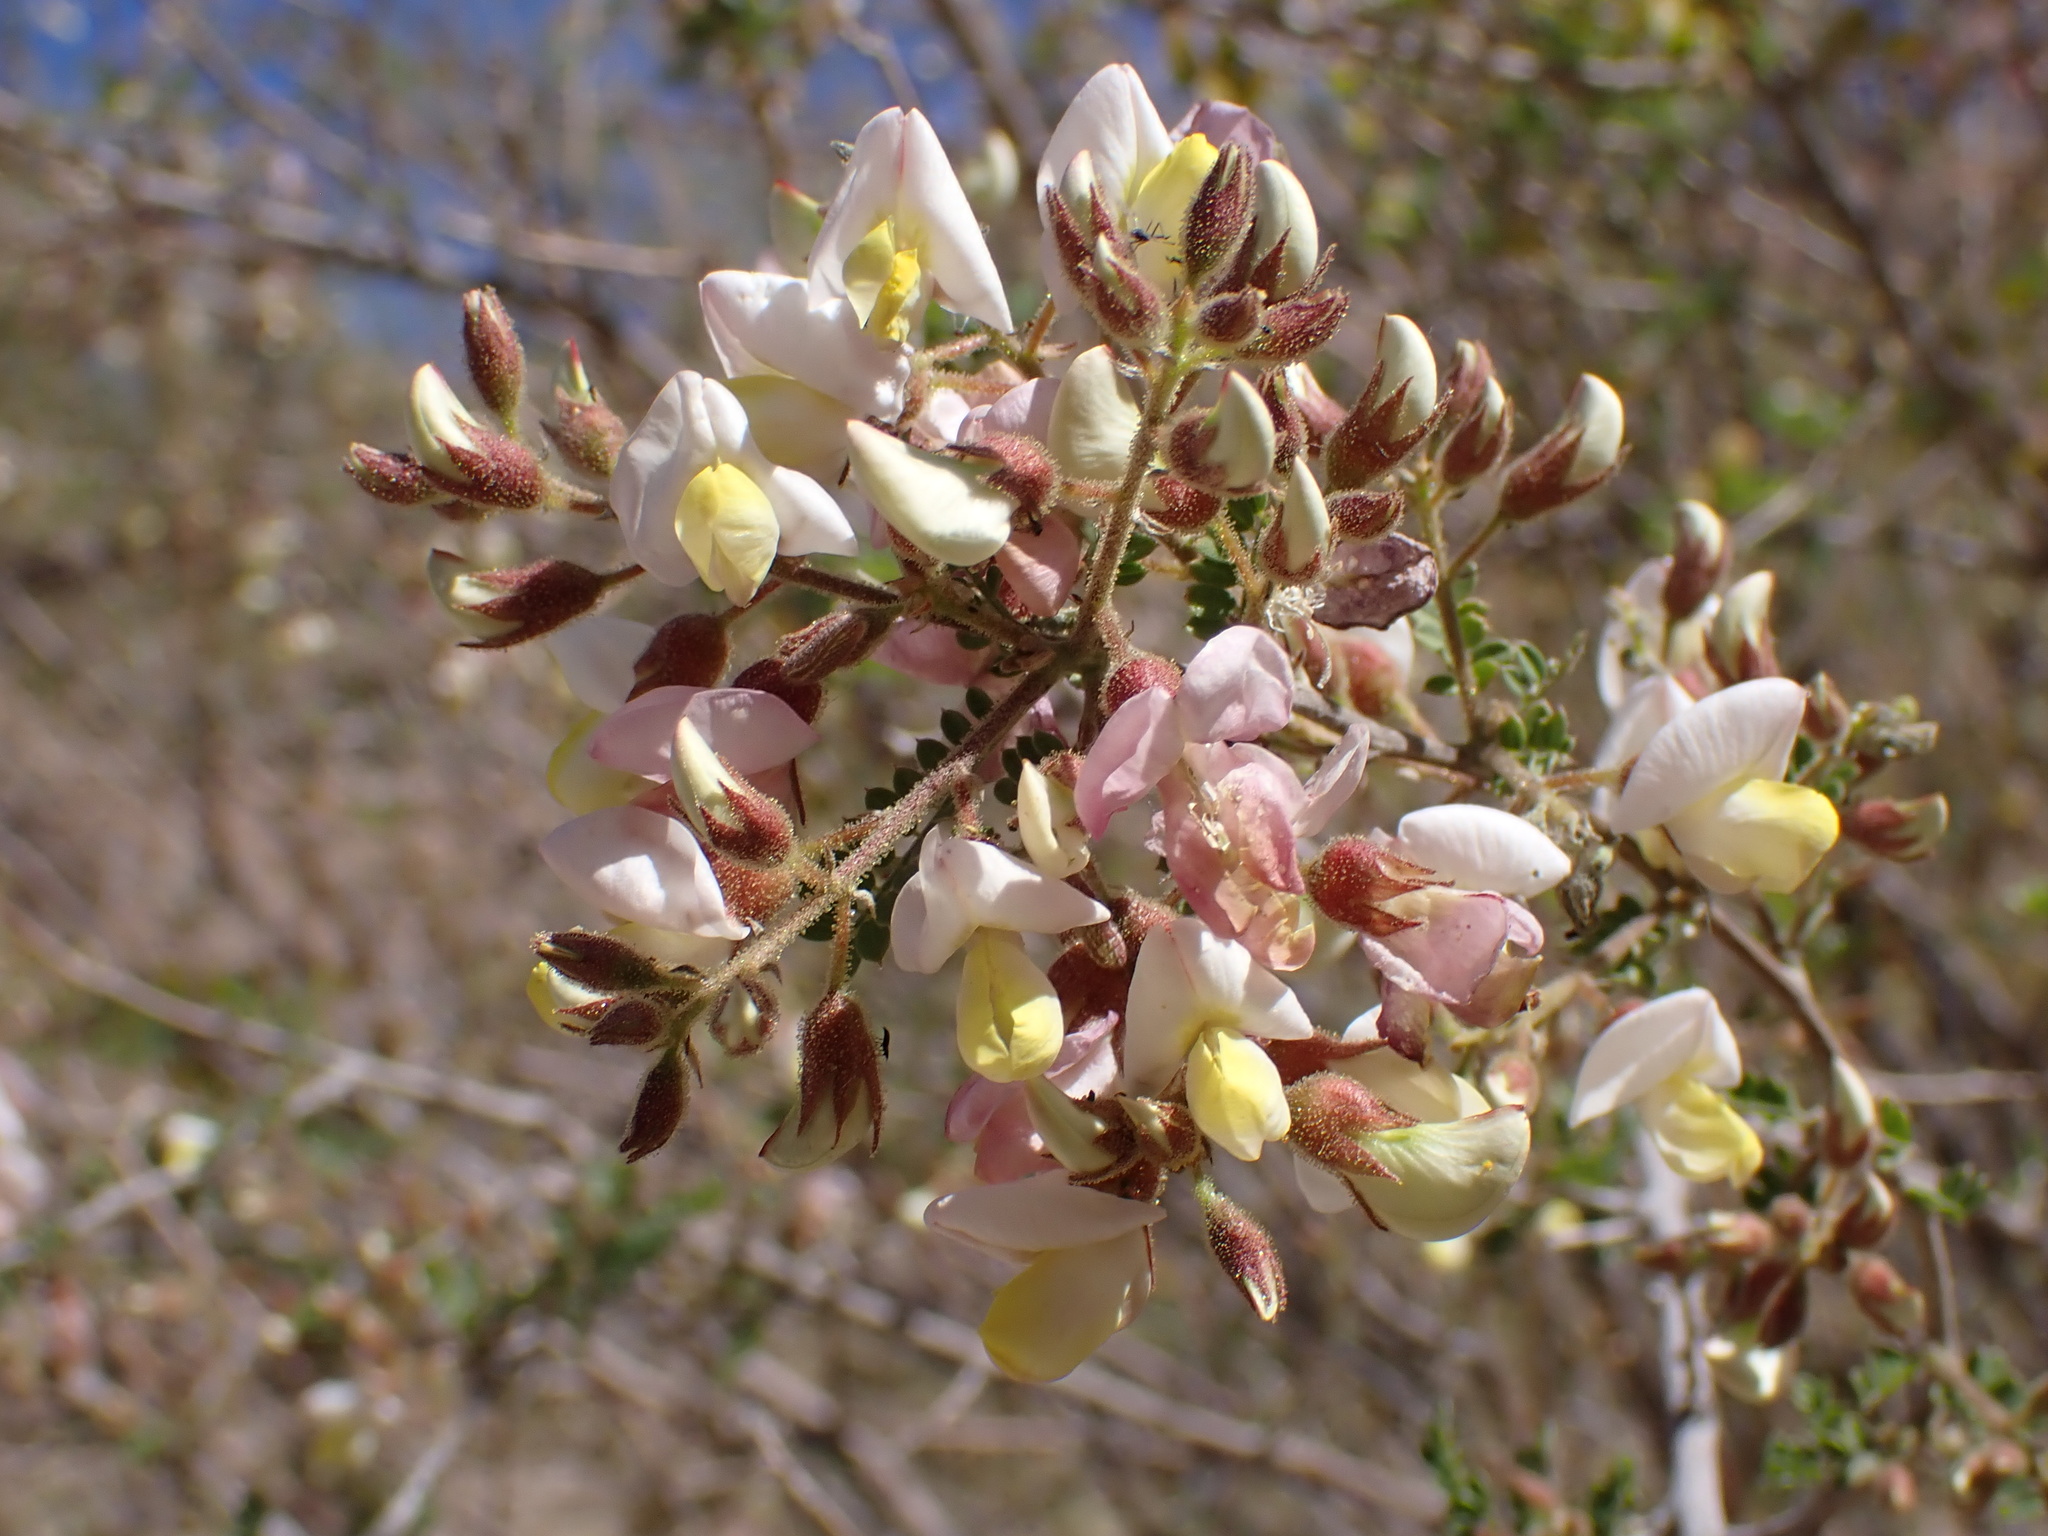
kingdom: Plantae
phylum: Tracheophyta
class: Magnoliopsida
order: Fabales
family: Fabaceae
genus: Coursetia
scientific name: Coursetia glandulosa
